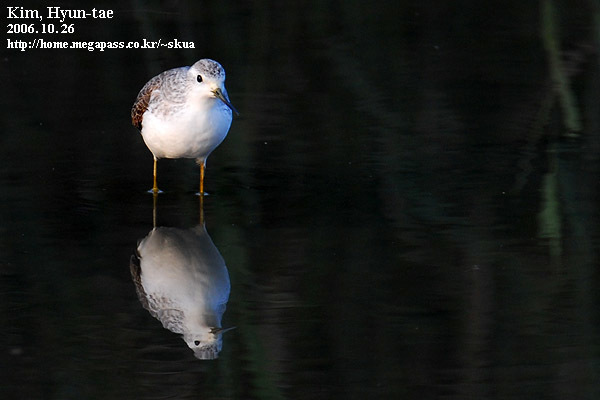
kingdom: Animalia
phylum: Chordata
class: Aves
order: Charadriiformes
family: Scolopacidae
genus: Tringa
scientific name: Tringa stagnatilis
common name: Marsh sandpiper
